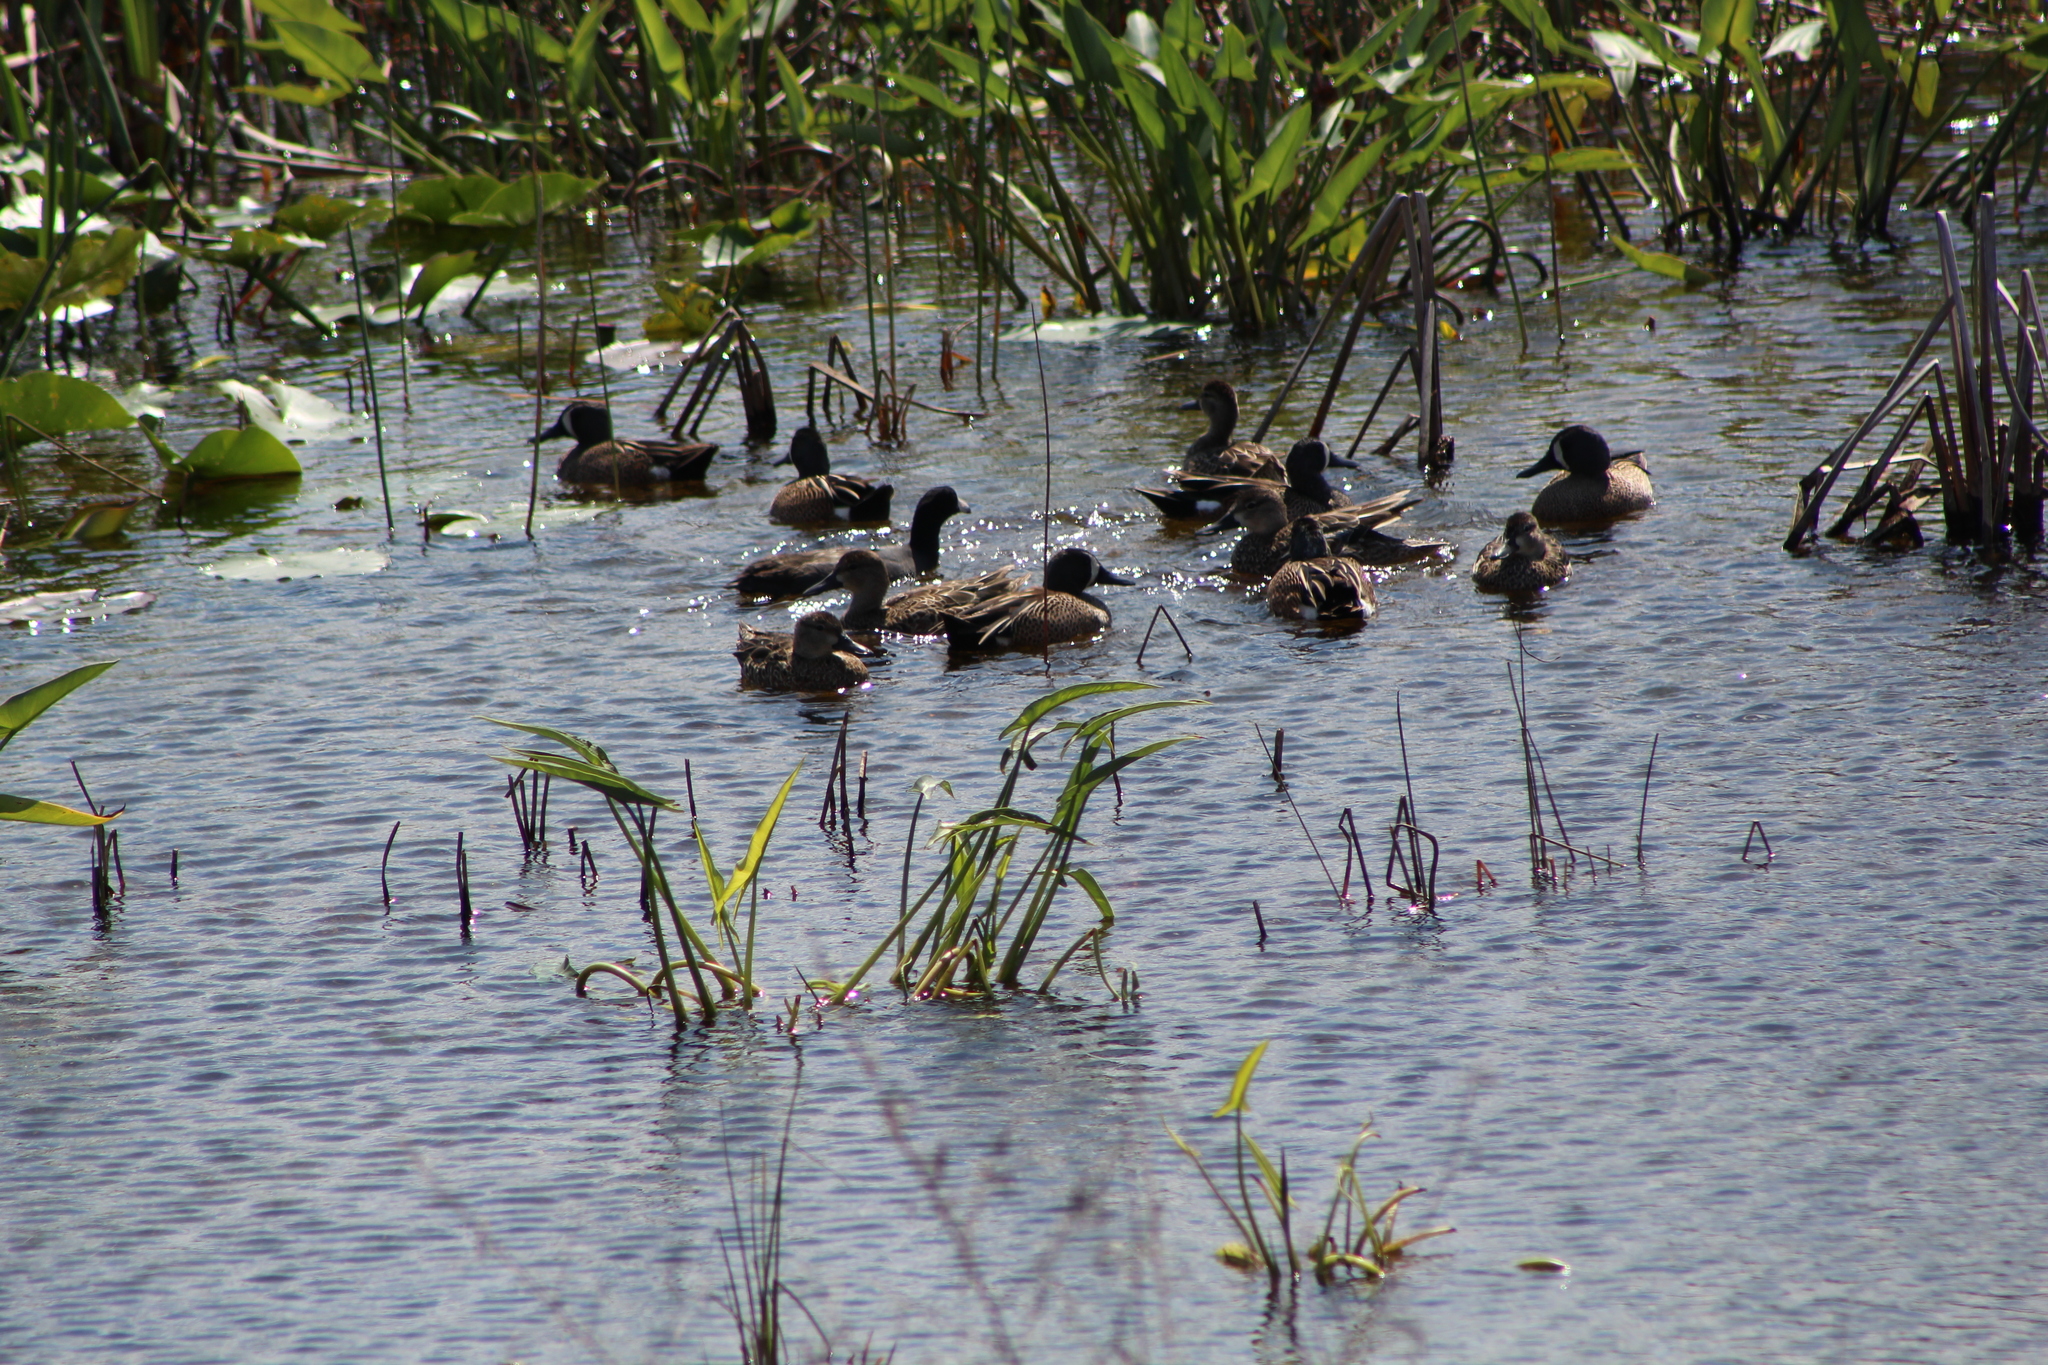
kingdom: Animalia
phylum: Chordata
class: Aves
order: Anseriformes
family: Anatidae
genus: Spatula
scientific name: Spatula discors
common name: Blue-winged teal
